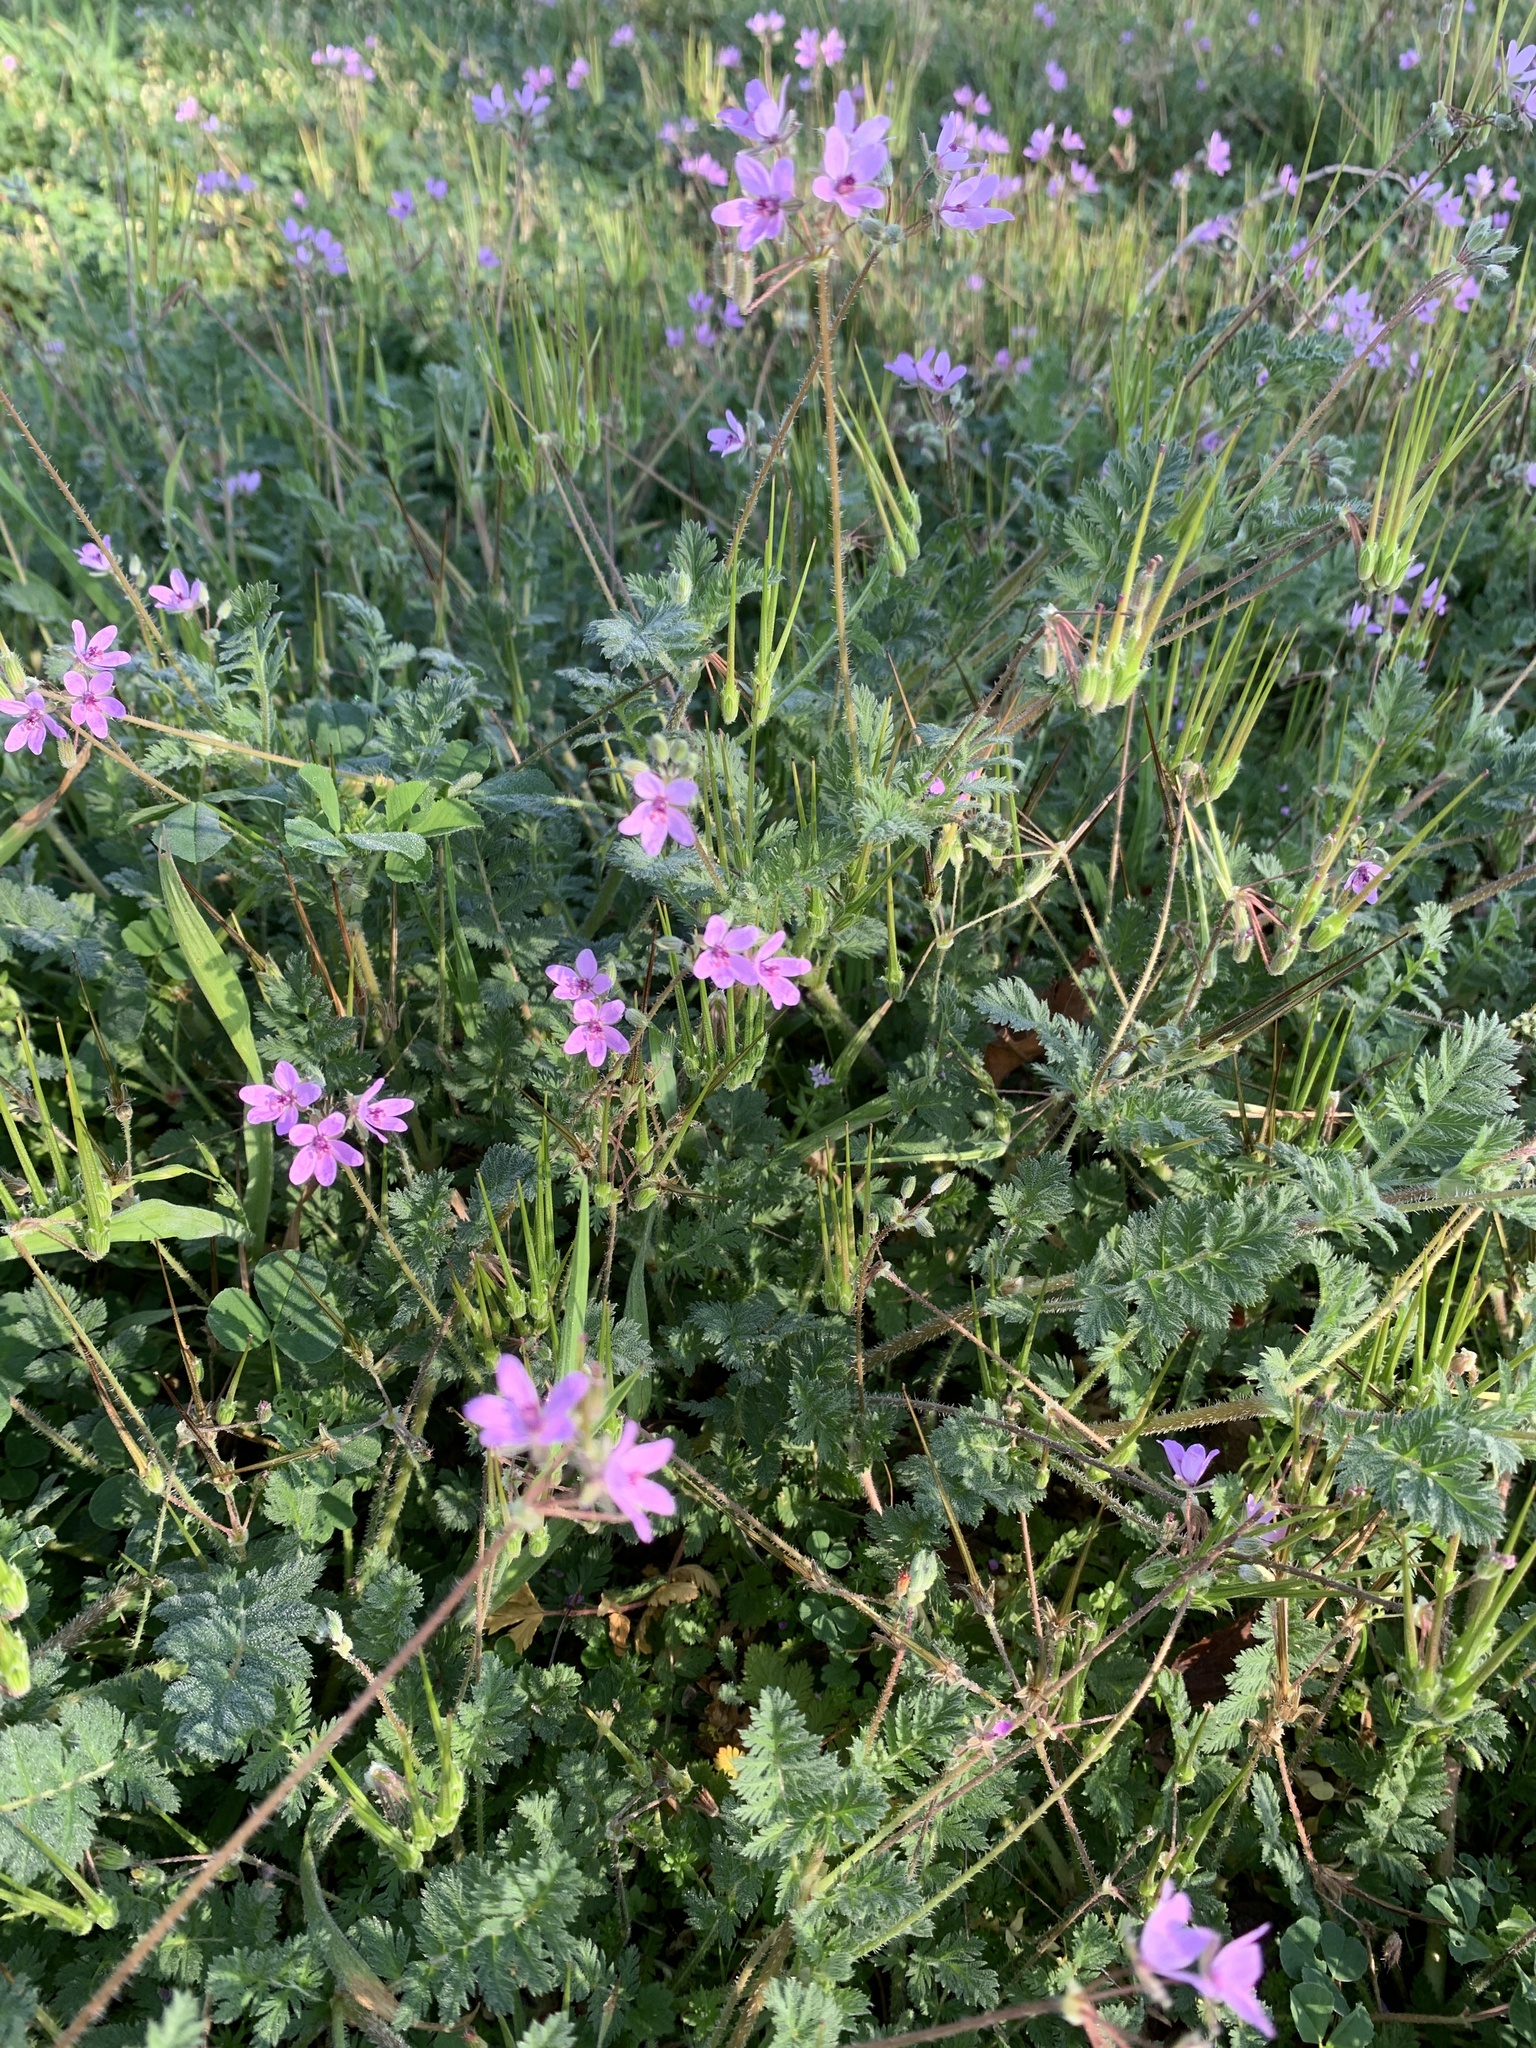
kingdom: Plantae
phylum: Tracheophyta
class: Magnoliopsida
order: Geraniales
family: Geraniaceae
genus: Erodium
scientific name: Erodium cicutarium
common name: Common stork's-bill
